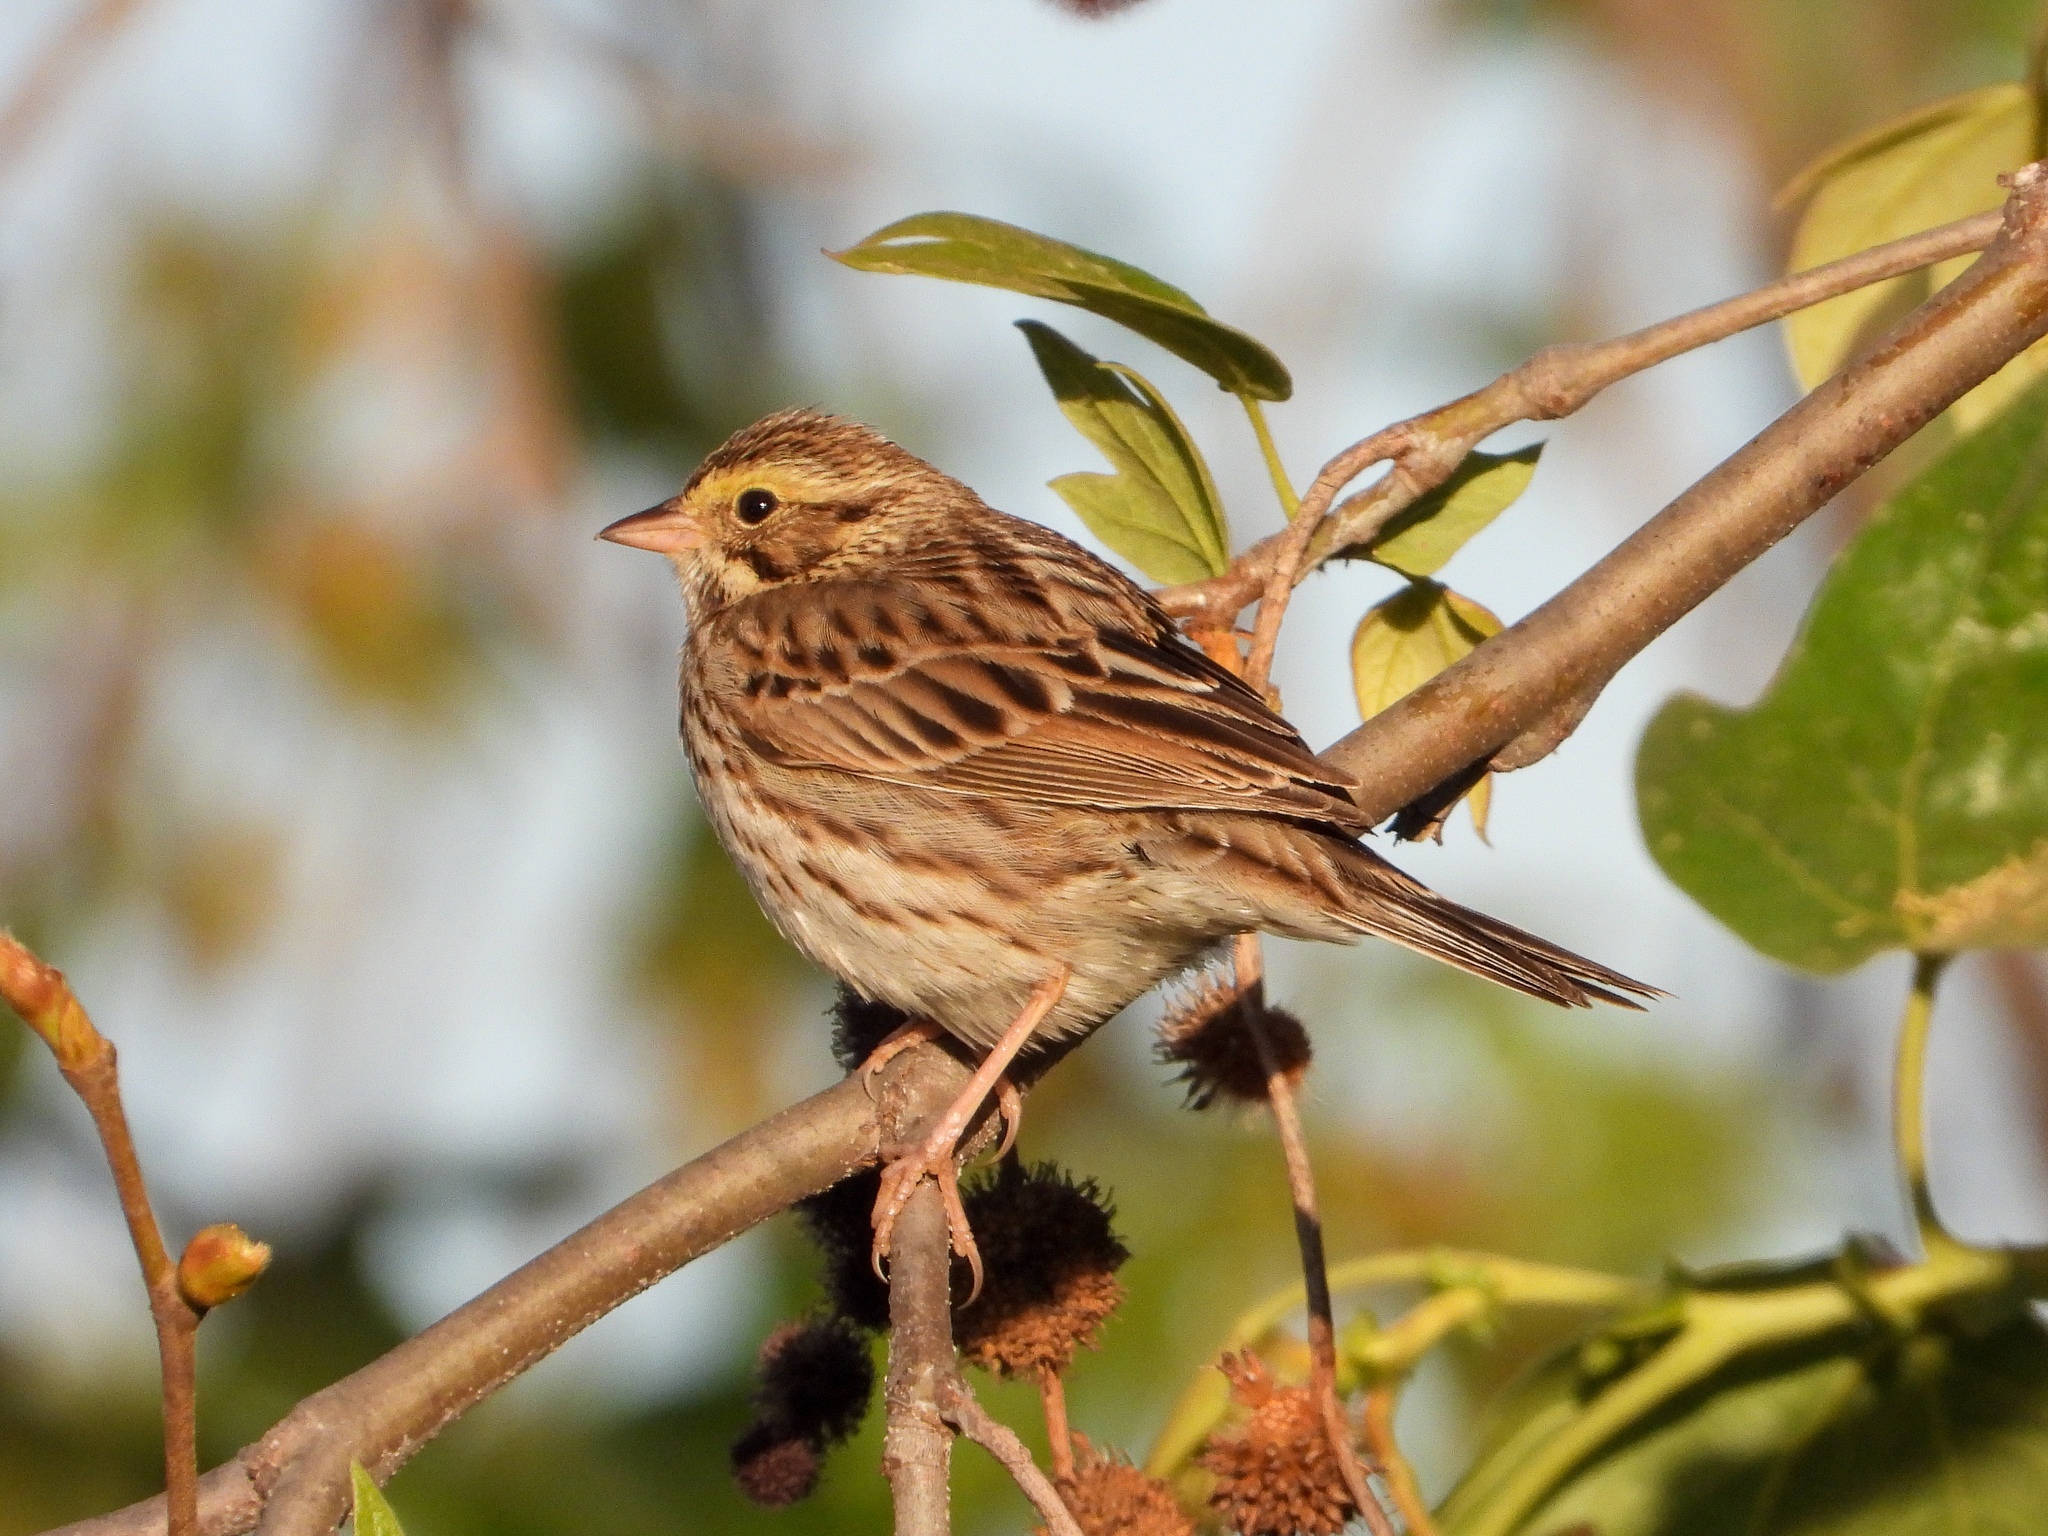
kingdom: Animalia
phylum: Chordata
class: Aves
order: Passeriformes
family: Passerellidae
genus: Passerculus
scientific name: Passerculus sandwichensis
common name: Savannah sparrow
